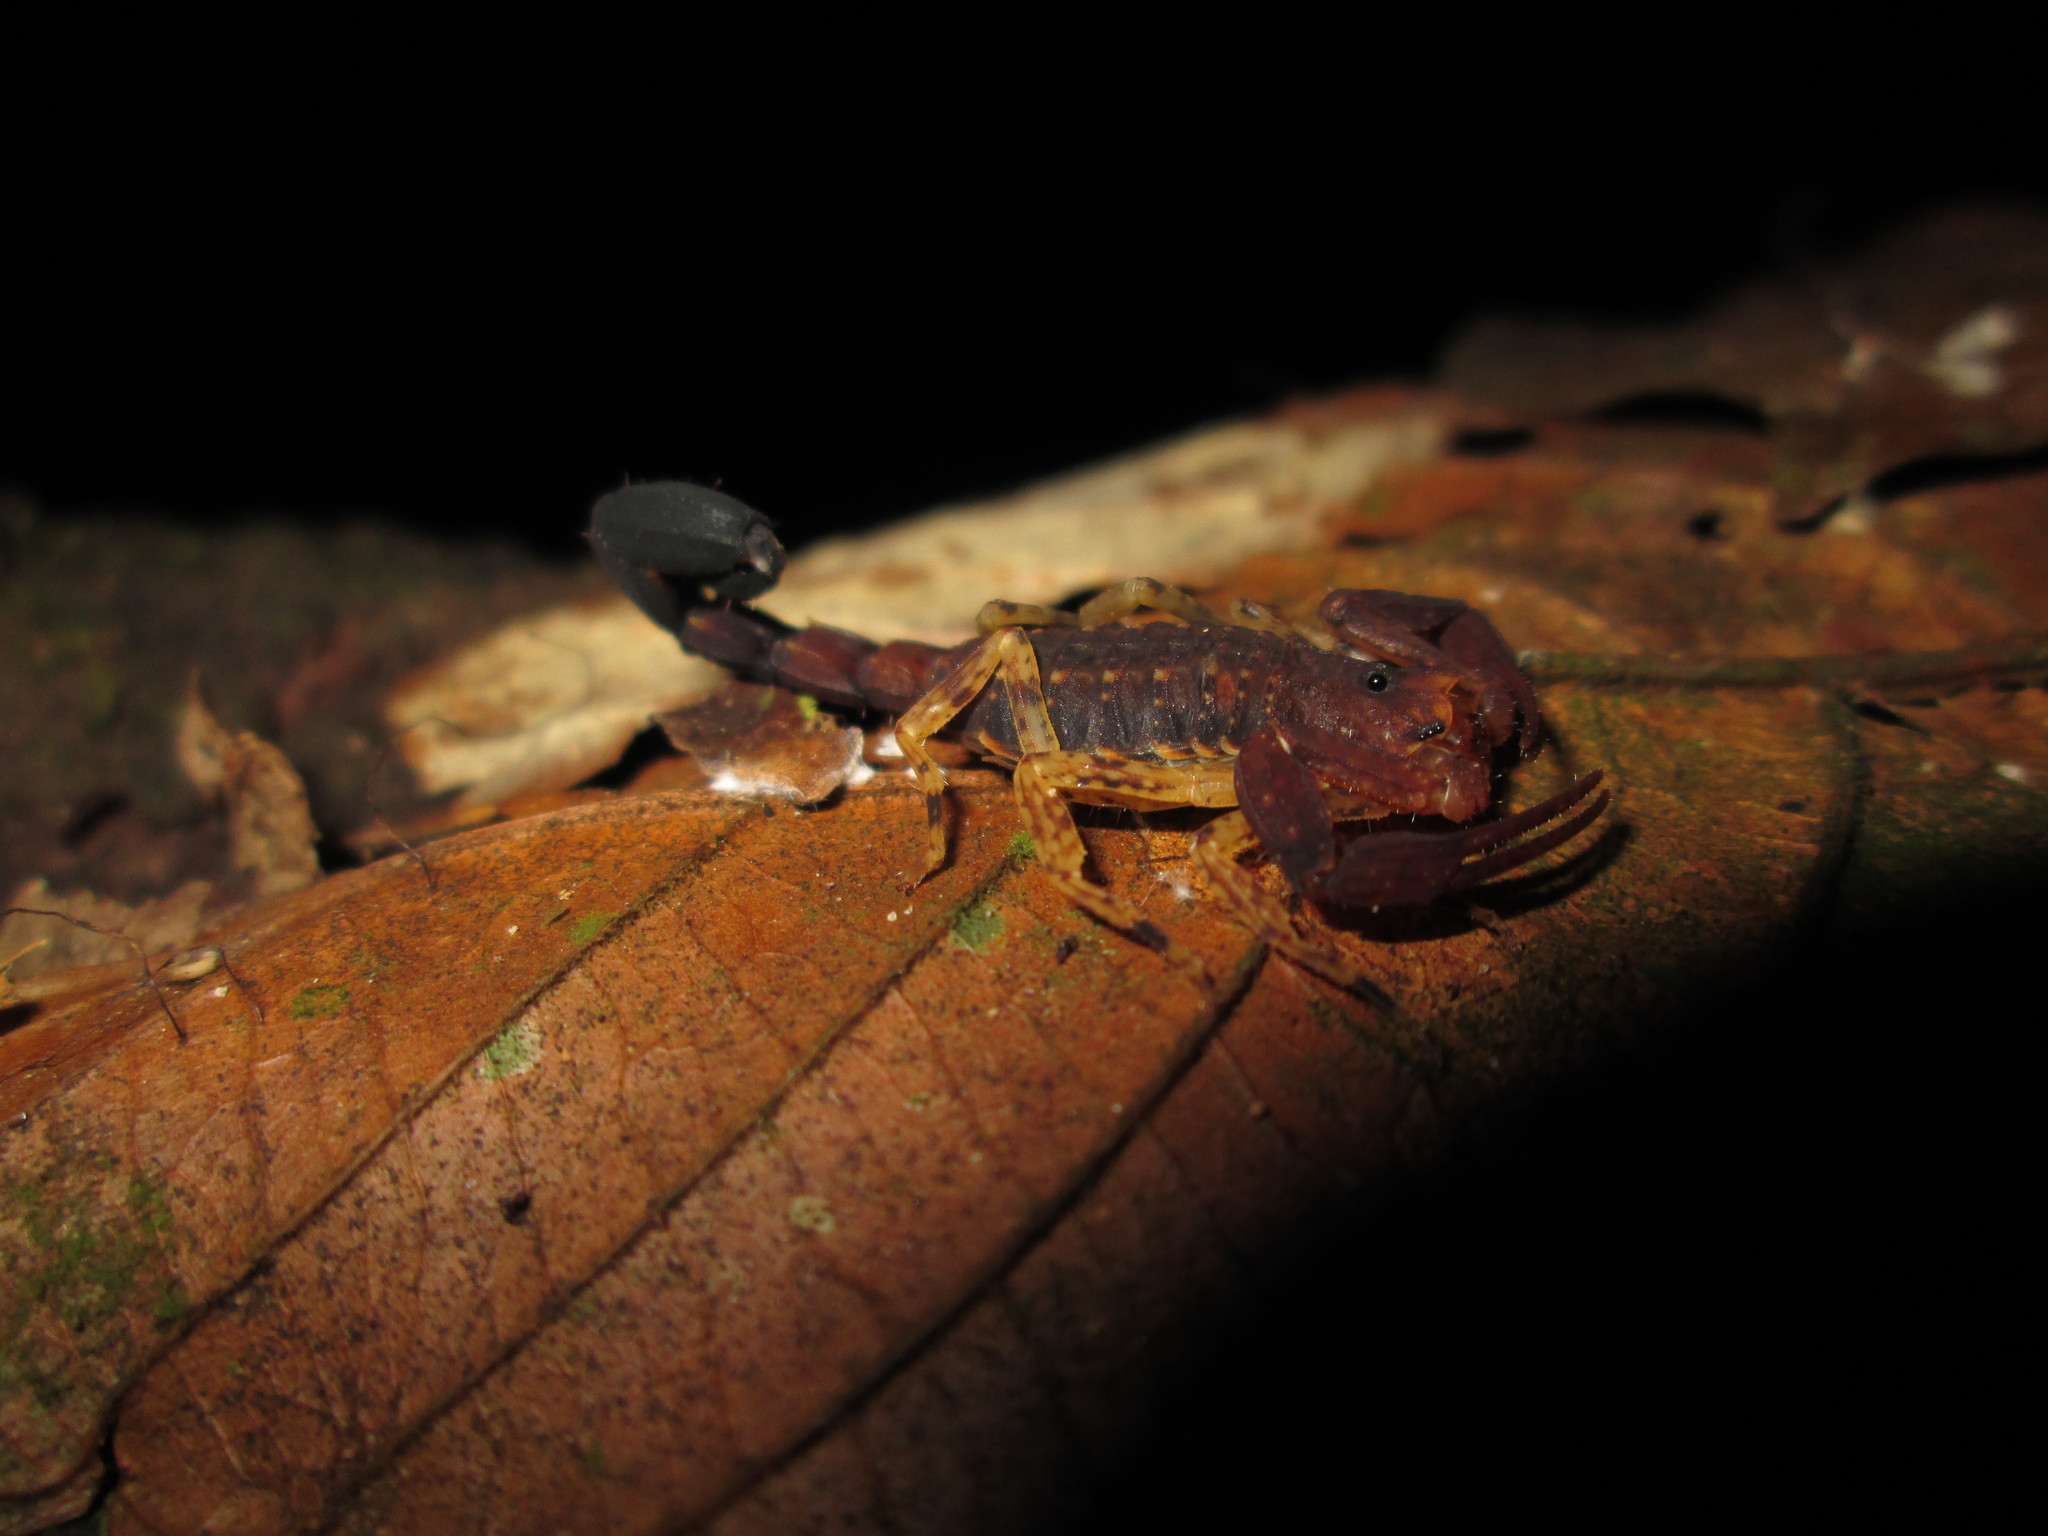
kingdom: Animalia
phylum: Arthropoda
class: Arachnida
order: Scorpiones
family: Buthidae
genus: Tityus
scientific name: Tityus bastosi
